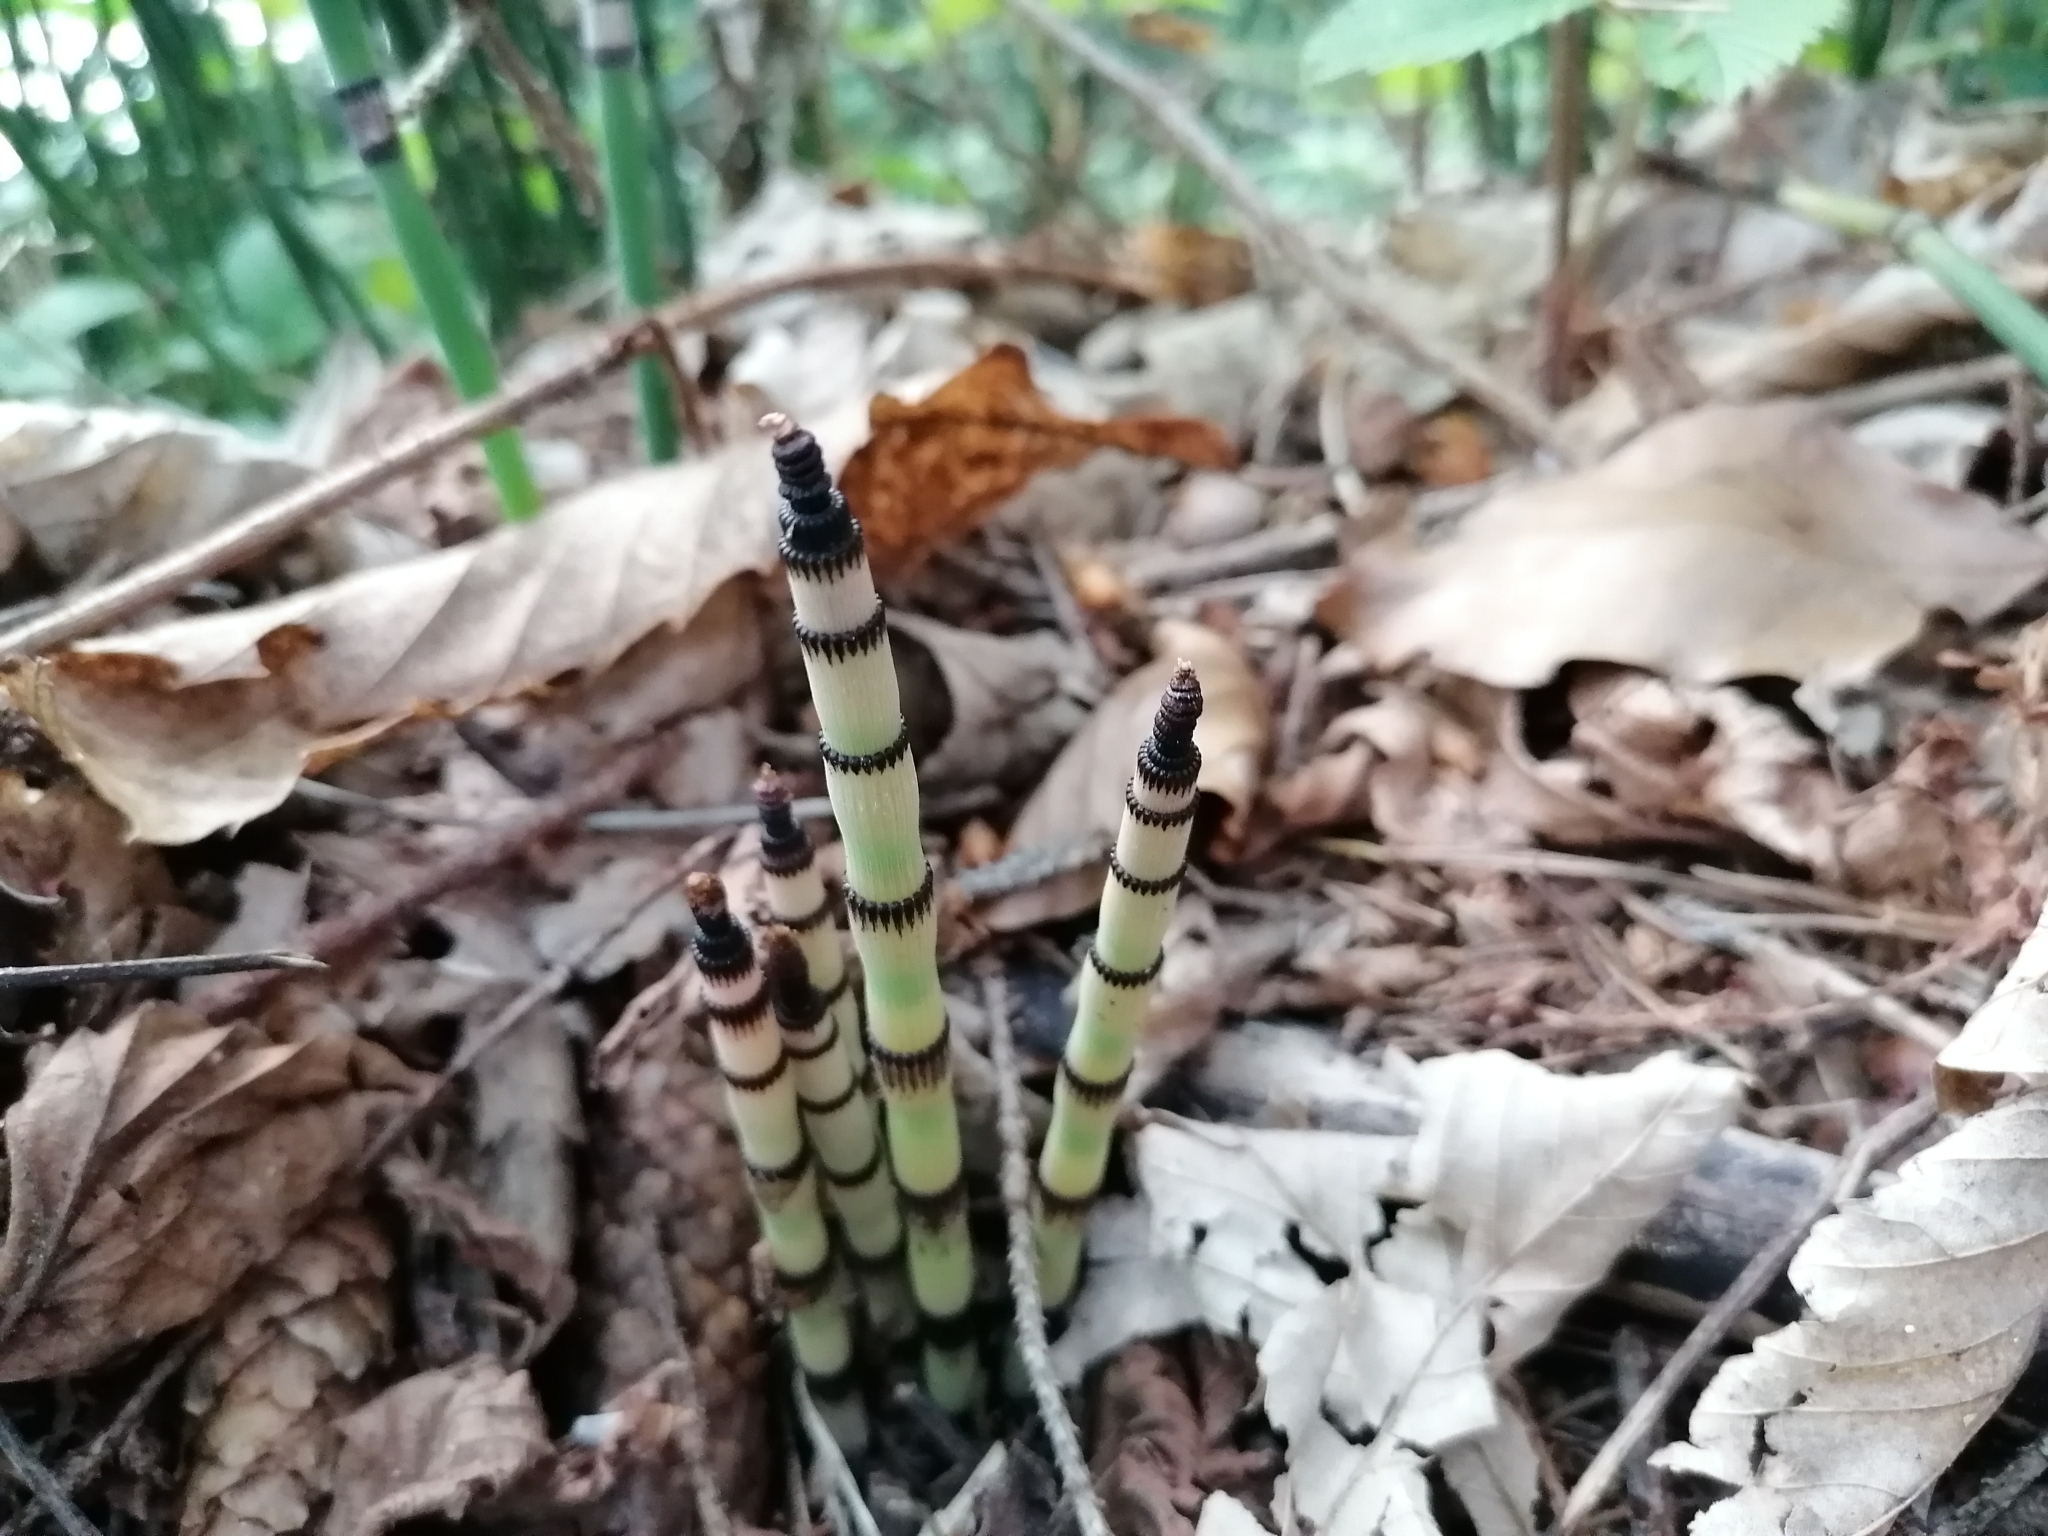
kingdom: Plantae
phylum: Tracheophyta
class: Polypodiopsida
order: Equisetales
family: Equisetaceae
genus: Equisetum
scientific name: Equisetum hyemale
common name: Rough horsetail
